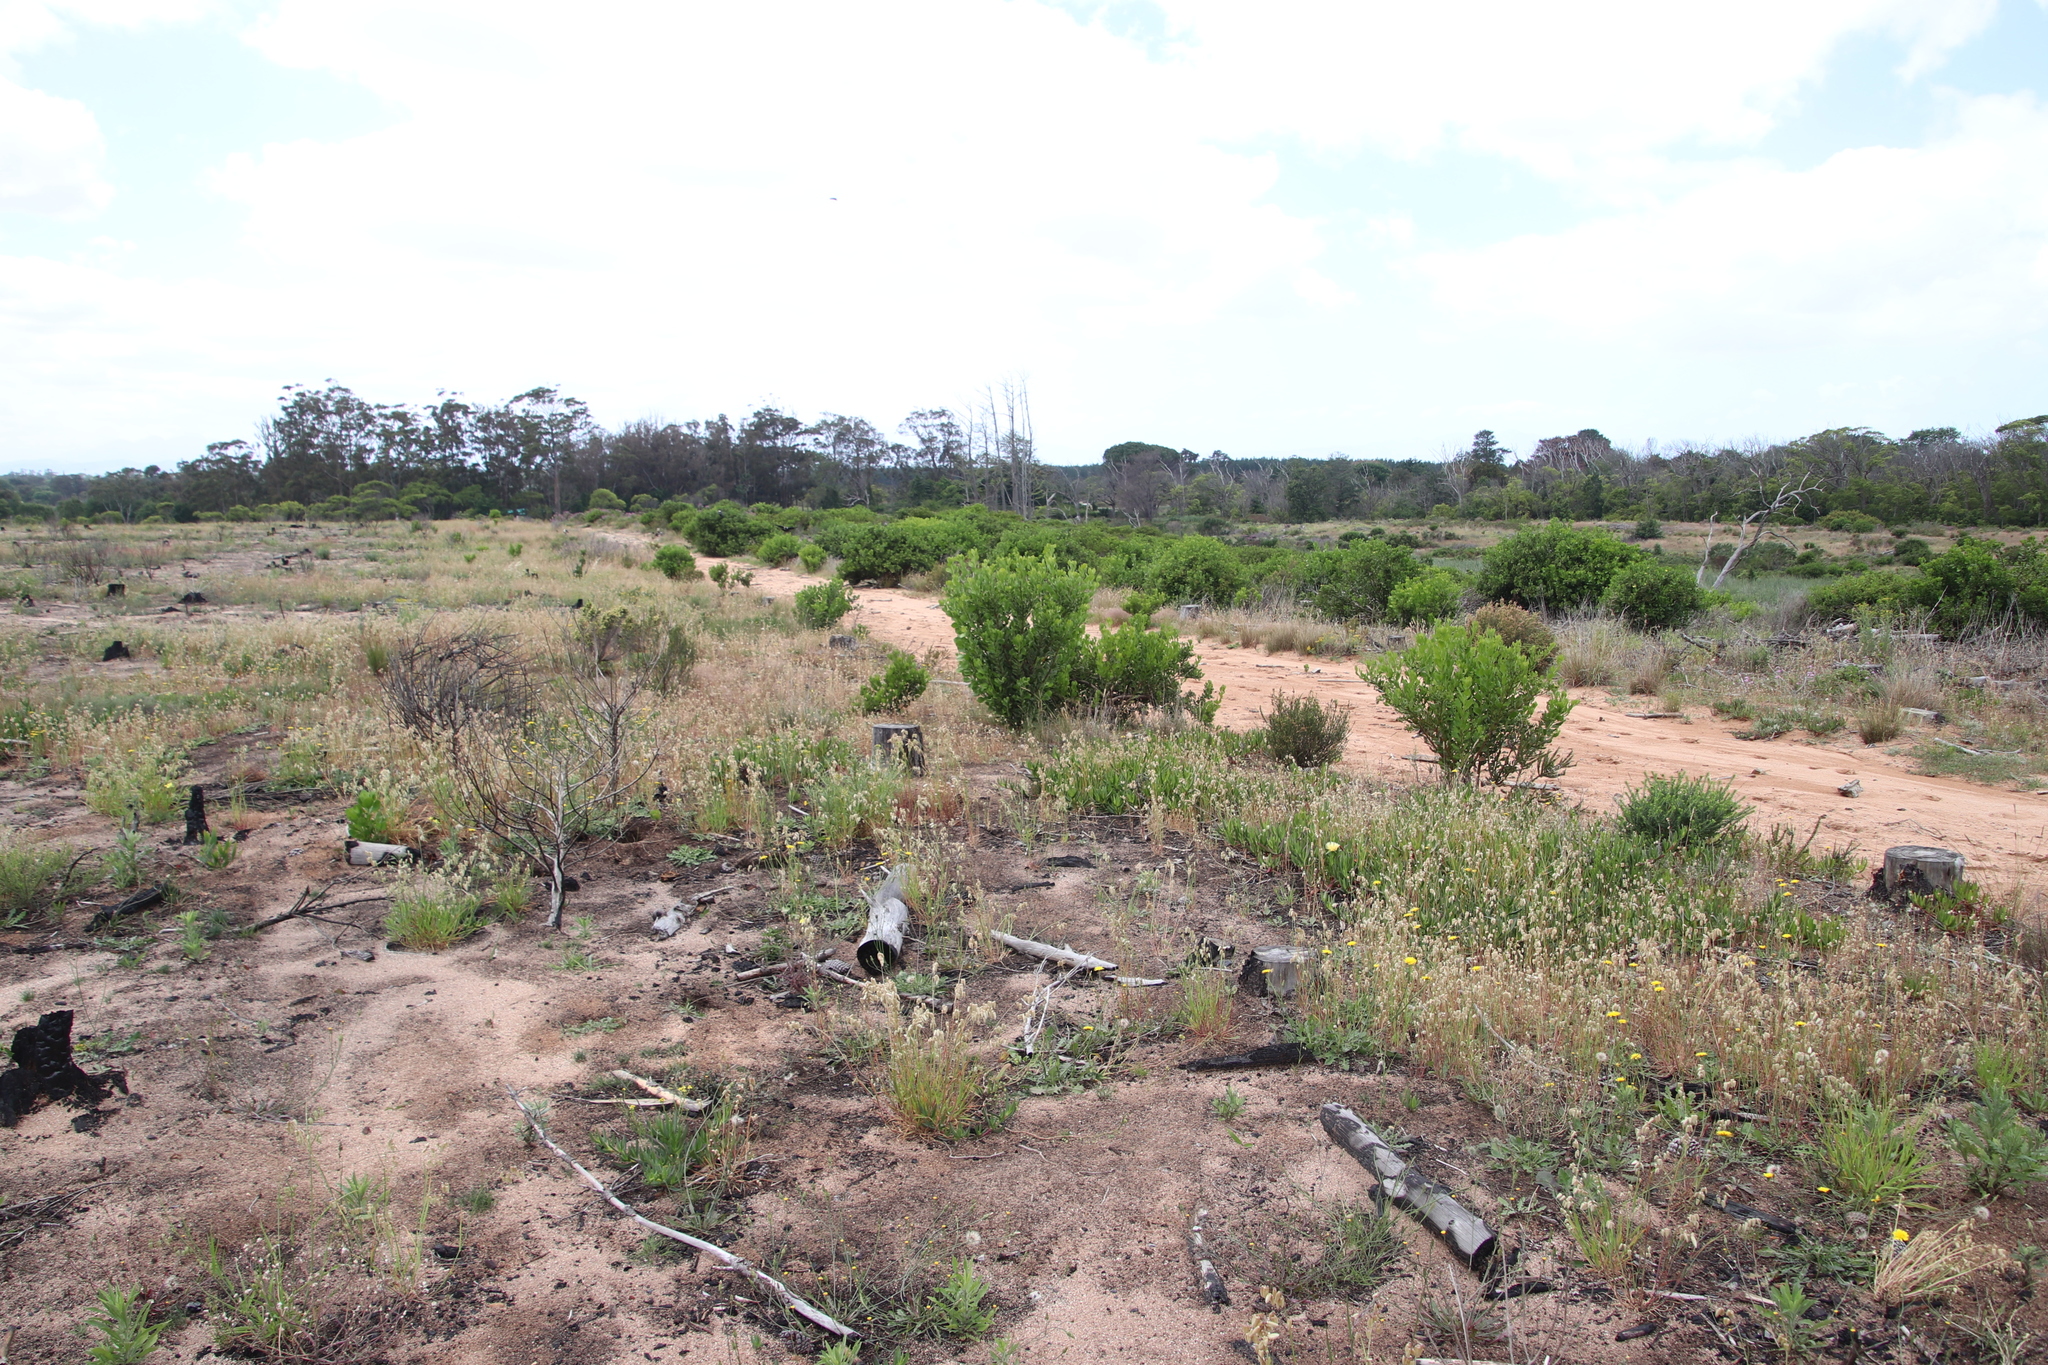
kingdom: Plantae
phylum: Tracheophyta
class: Liliopsida
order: Poales
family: Poaceae
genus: Briza
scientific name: Briza maxima
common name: Big quakinggrass
